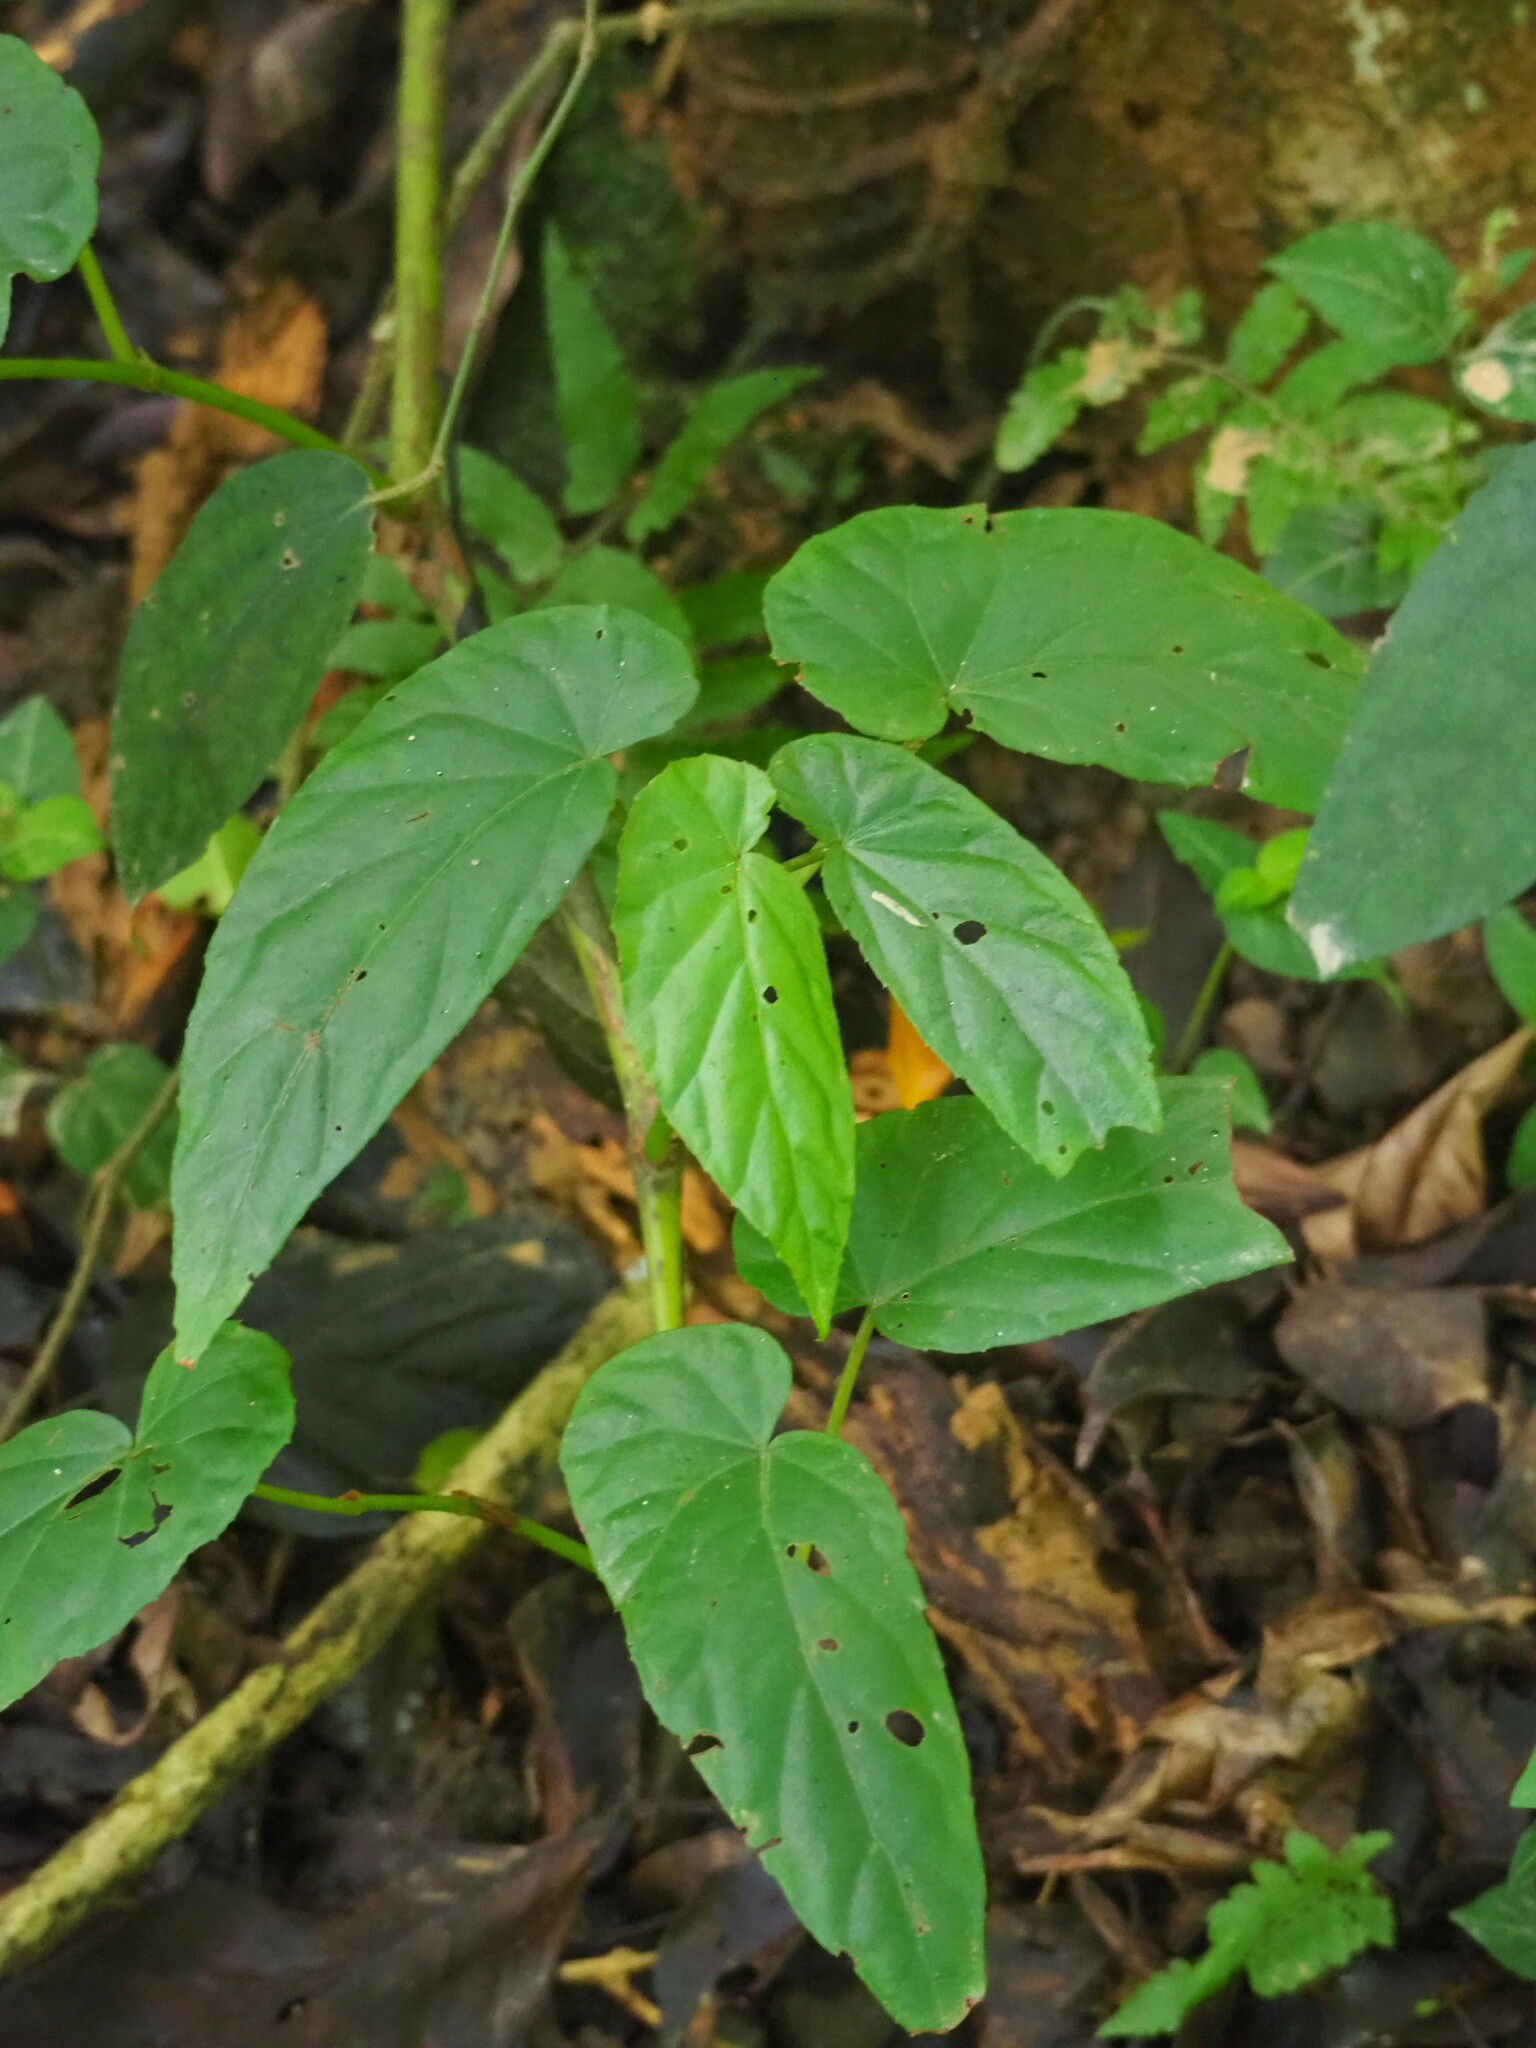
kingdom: Plantae
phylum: Tracheophyta
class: Magnoliopsida
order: Cucurbitales
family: Begoniaceae
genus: Begonia
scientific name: Begonia longifolia
